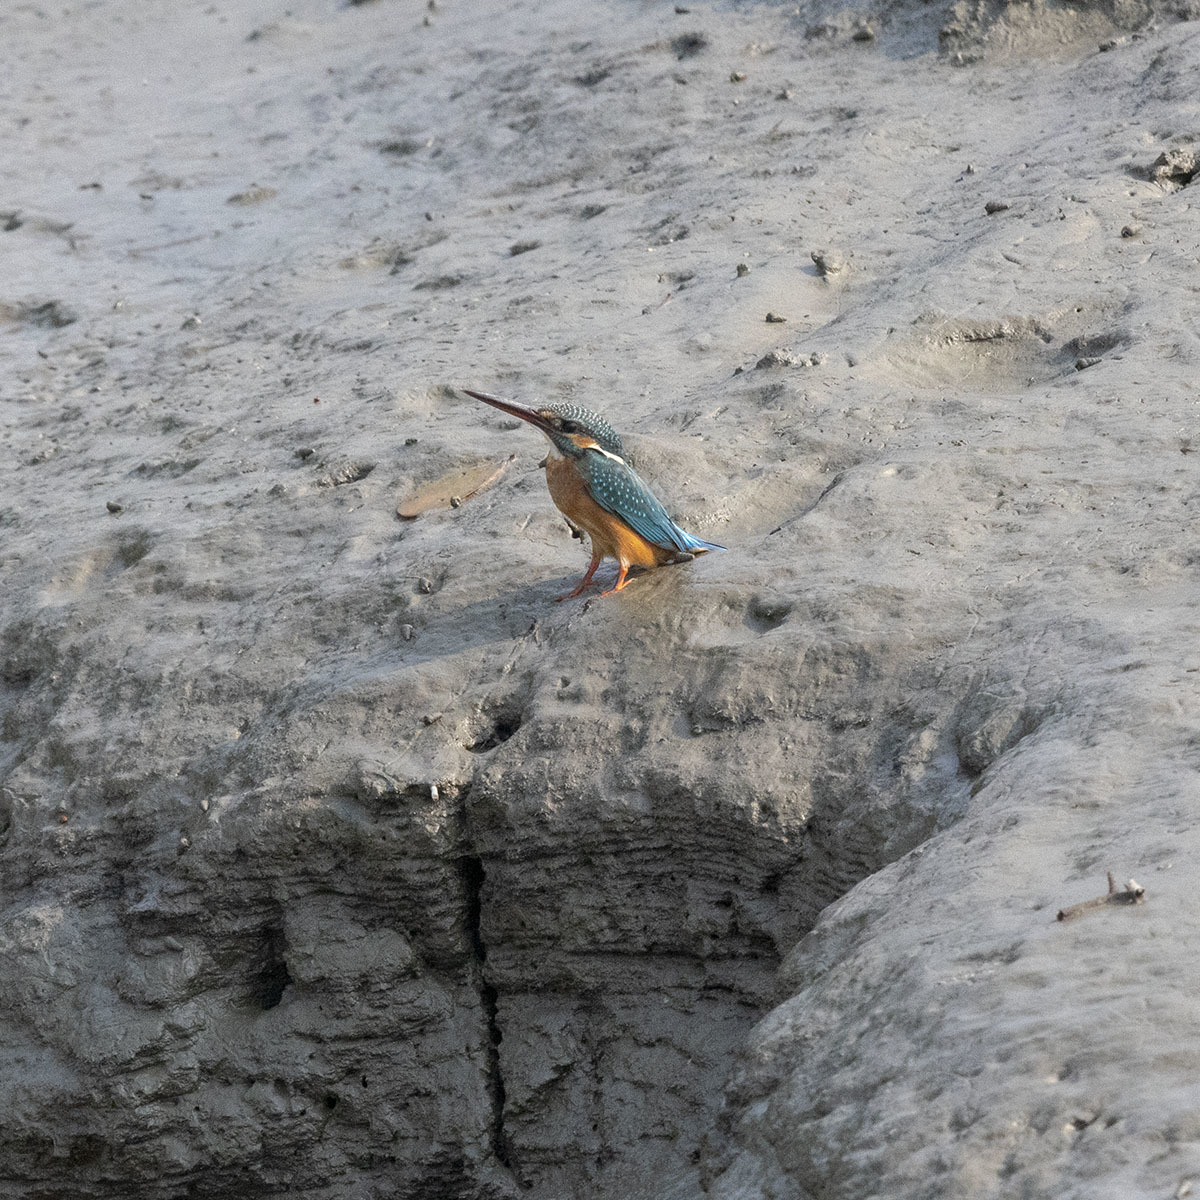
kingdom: Animalia
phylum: Chordata
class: Aves
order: Coraciiformes
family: Alcedinidae
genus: Alcedo
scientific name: Alcedo atthis
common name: Common kingfisher
